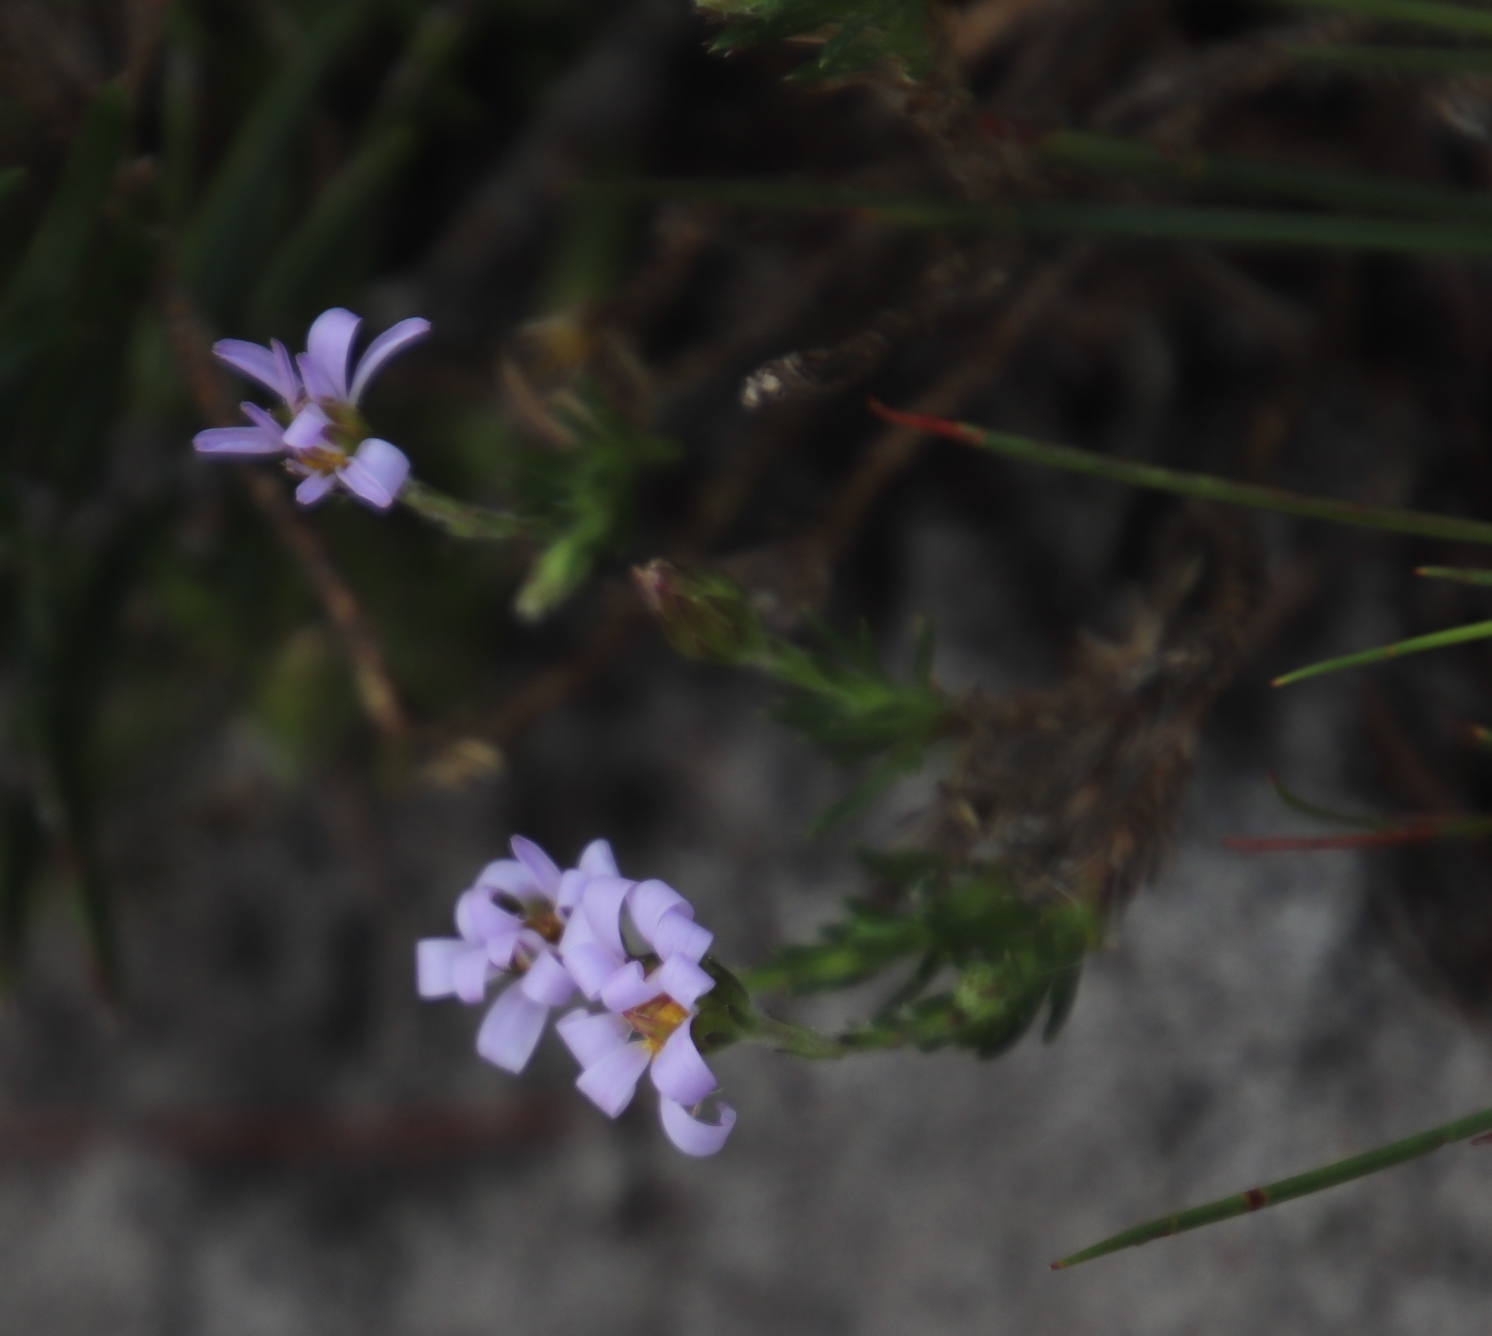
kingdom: Plantae
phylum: Tracheophyta
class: Magnoliopsida
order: Asterales
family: Asteraceae
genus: Zyrphelis
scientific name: Zyrphelis taxifolia
